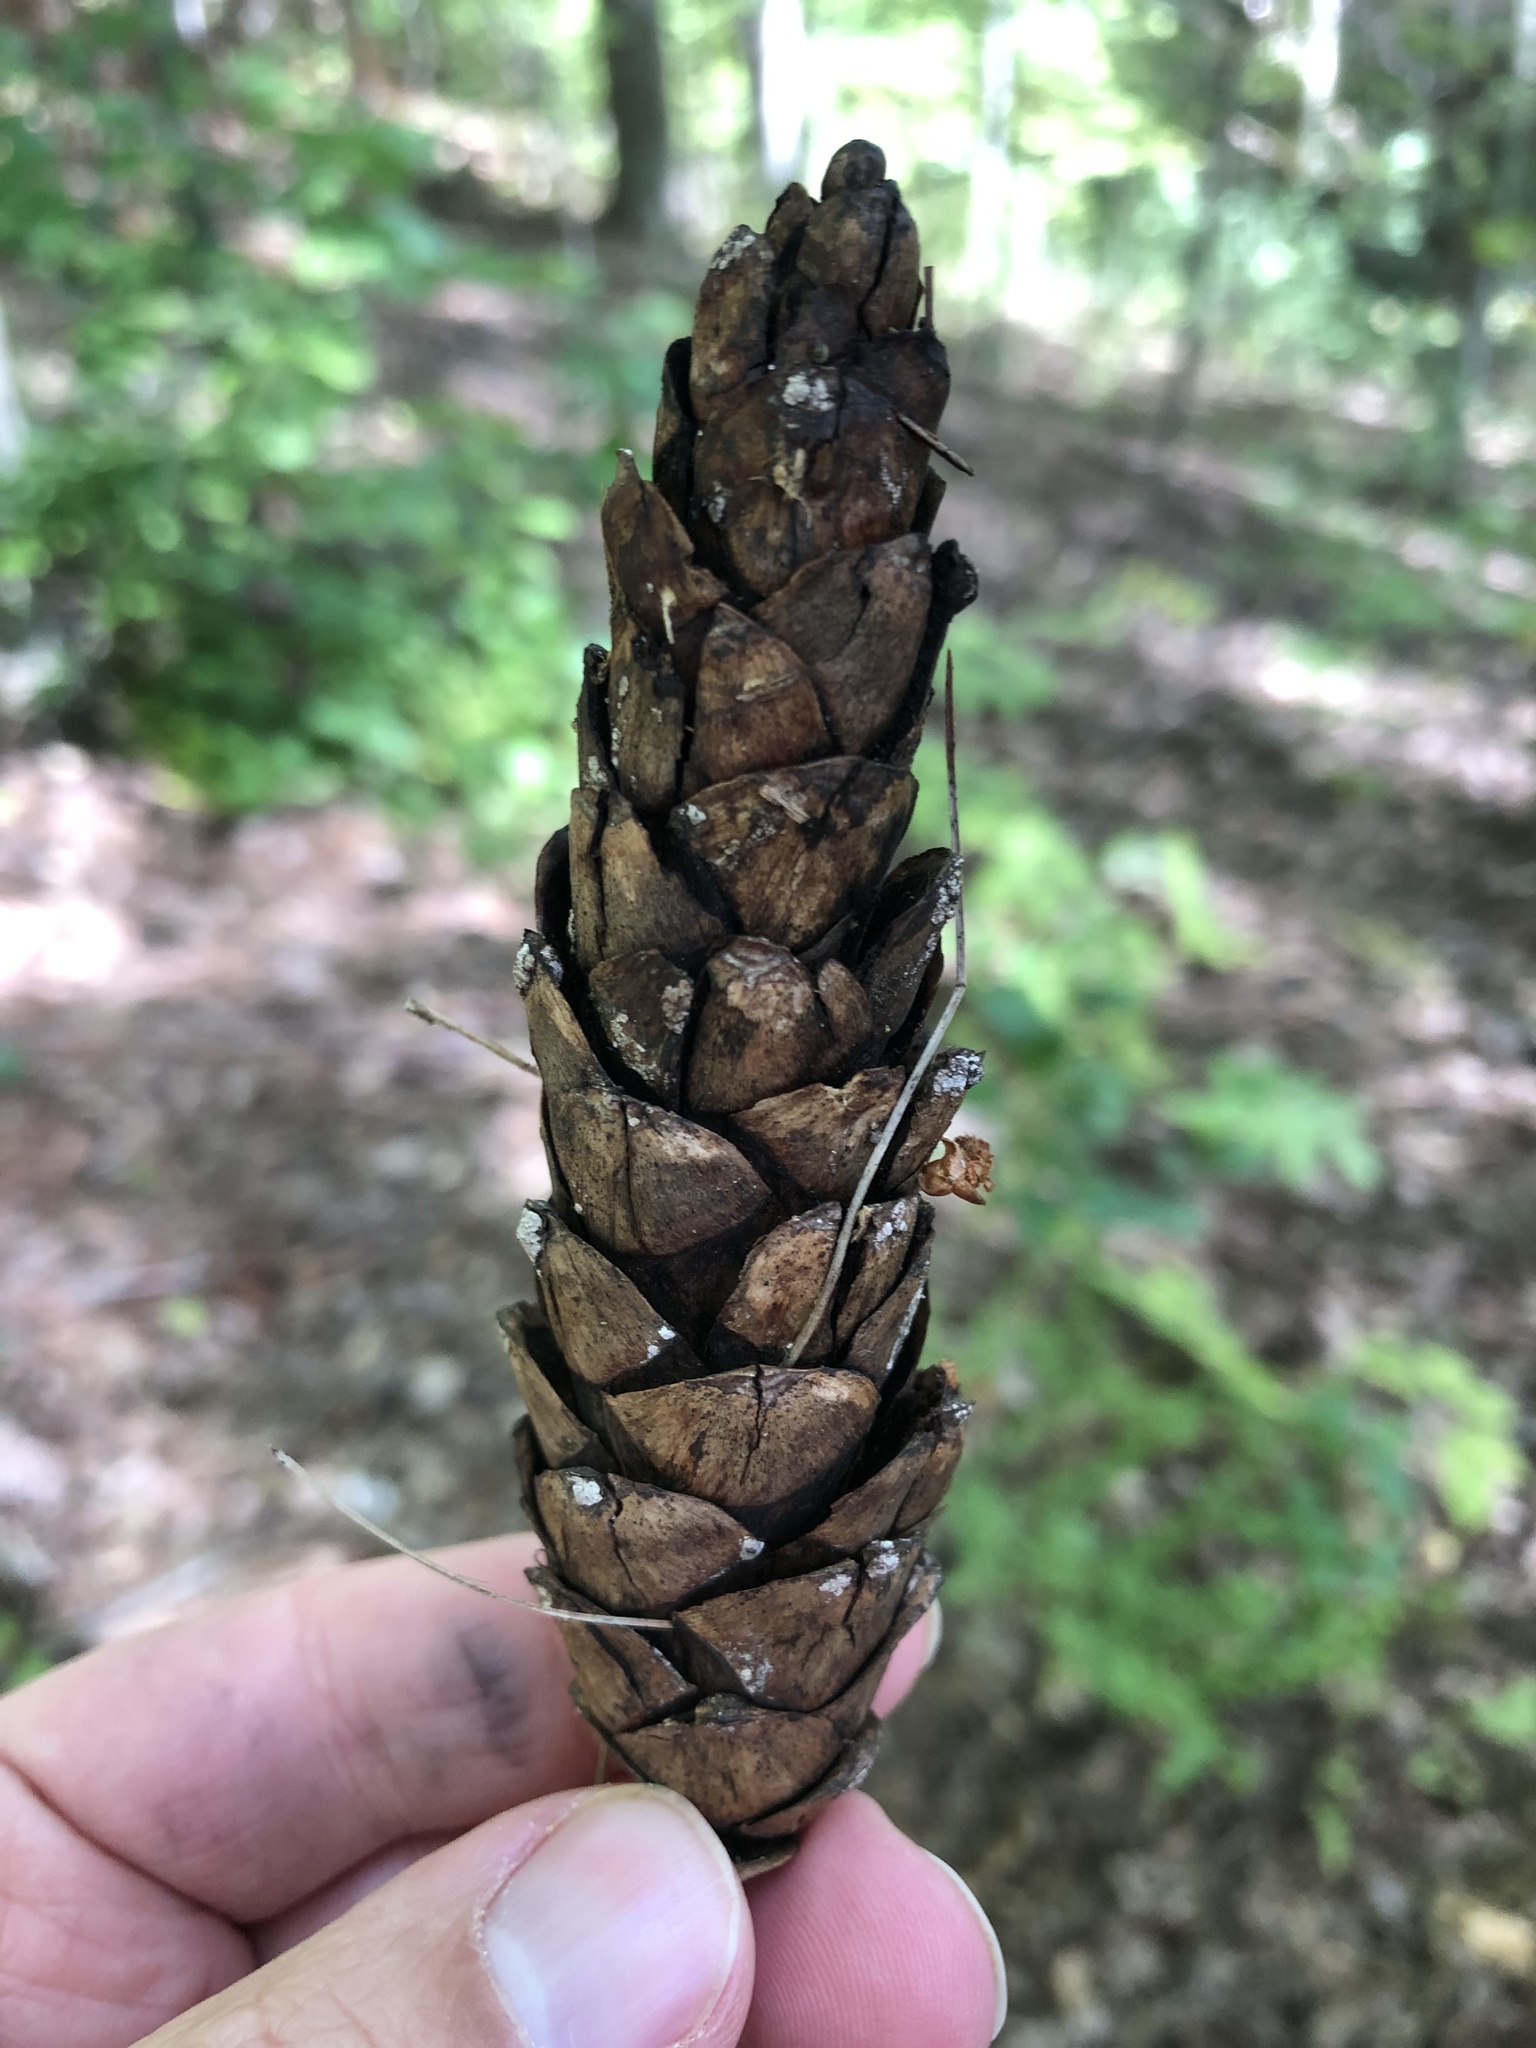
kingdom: Plantae
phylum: Tracheophyta
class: Pinopsida
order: Pinales
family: Pinaceae
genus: Pinus
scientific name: Pinus strobus
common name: Weymouth pine
